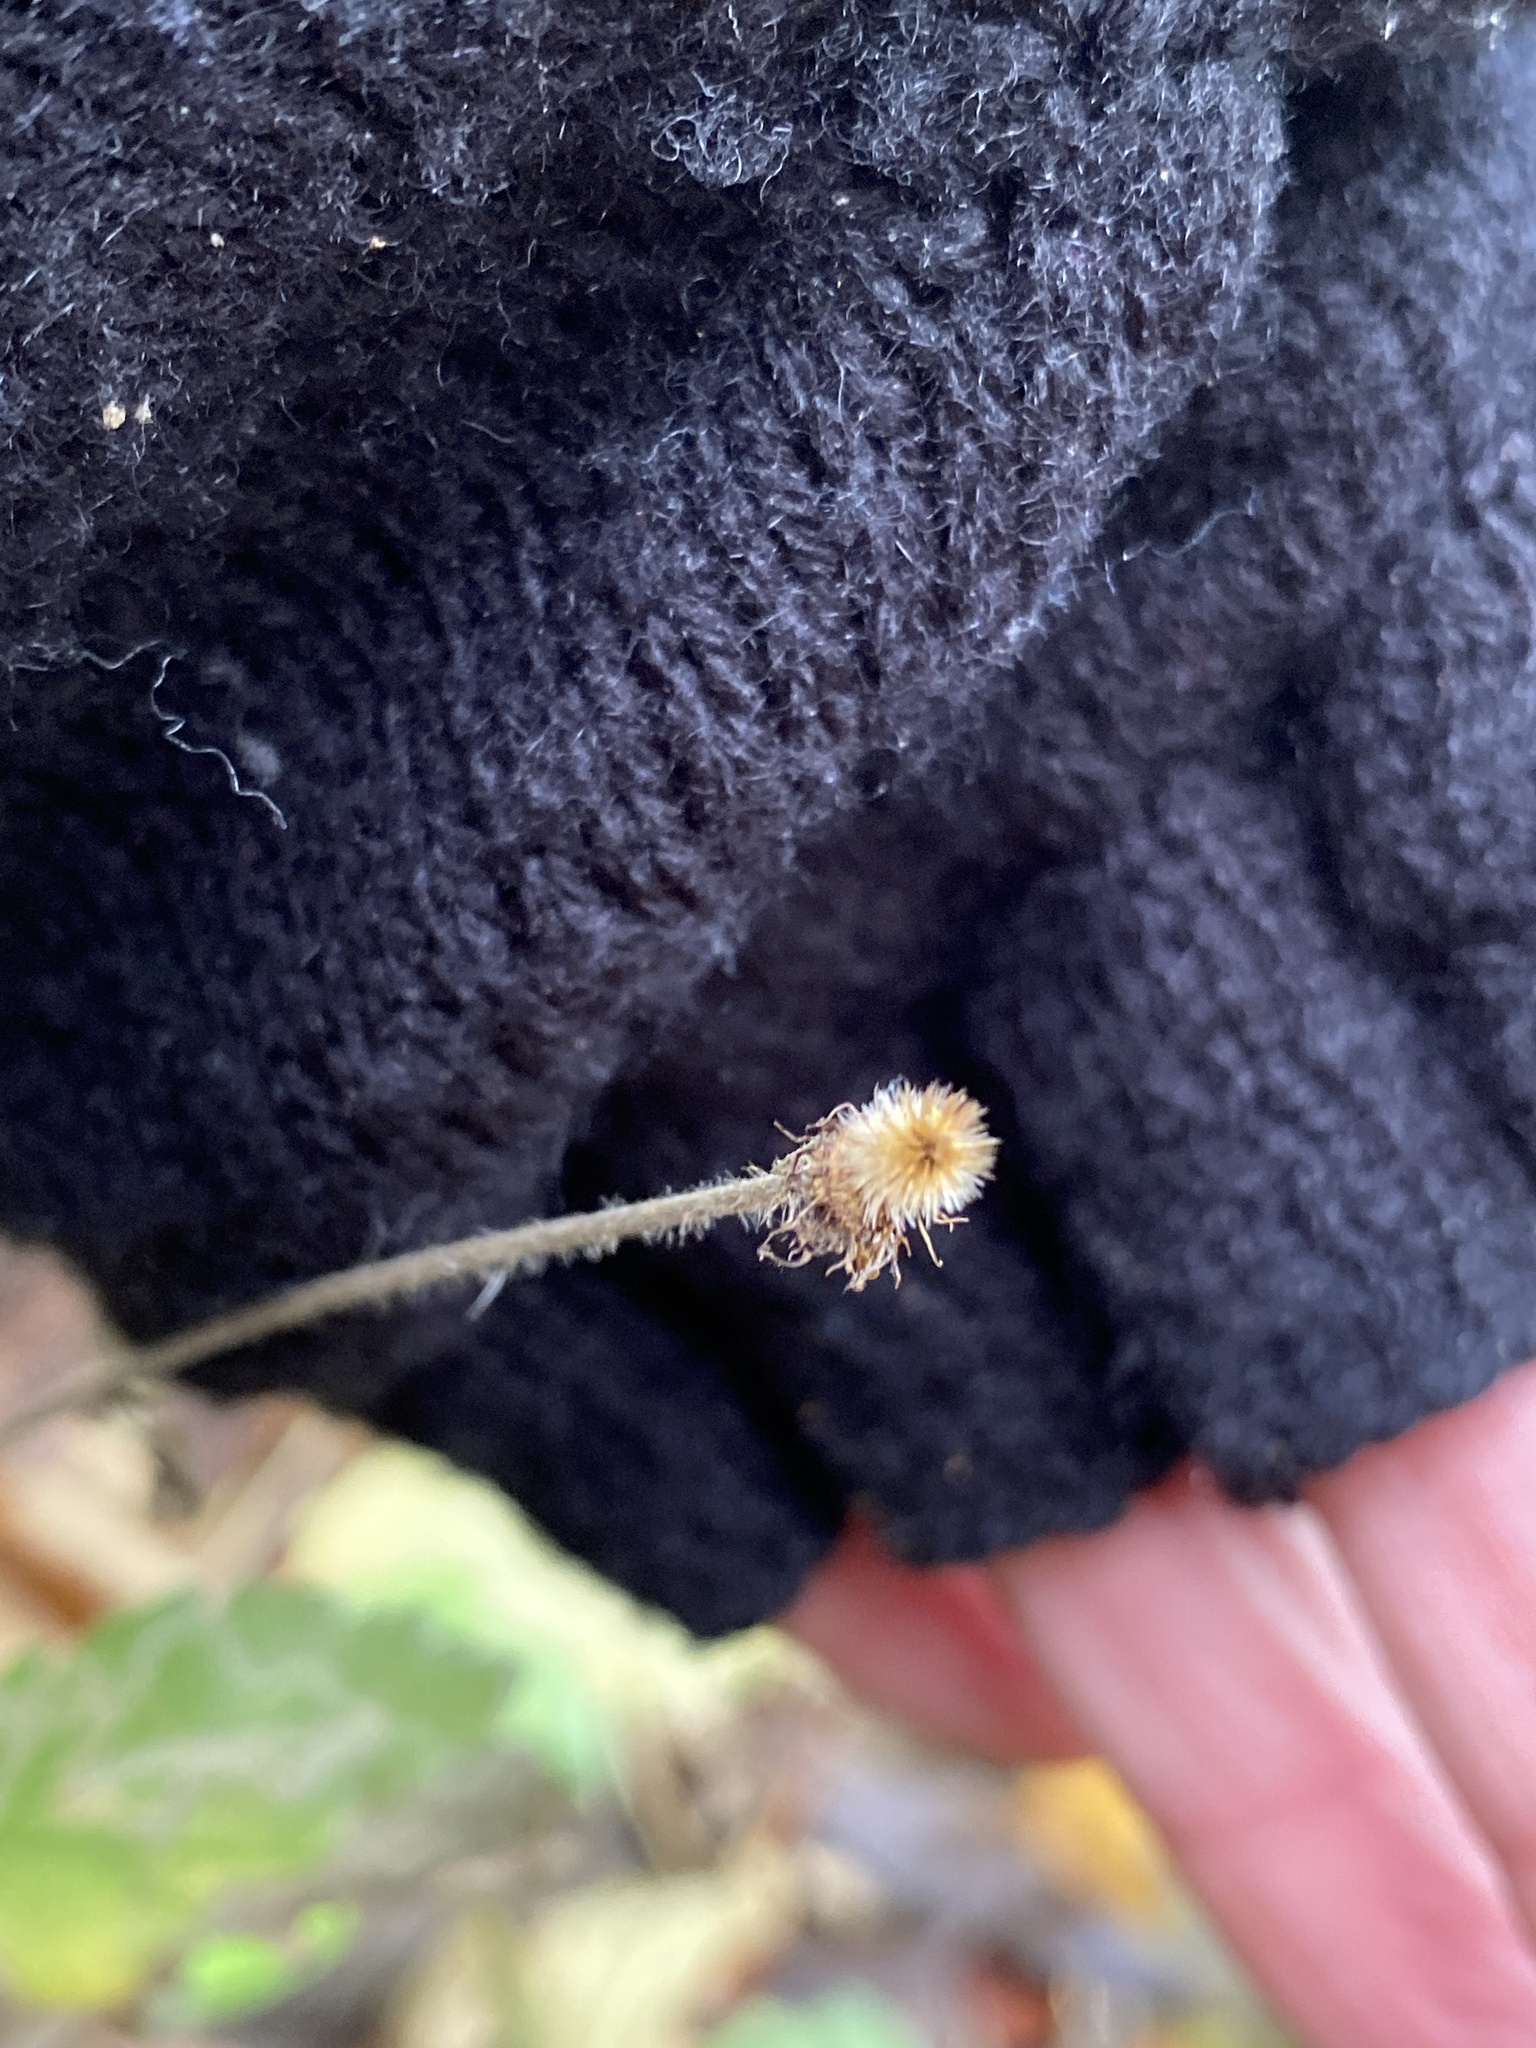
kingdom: Plantae
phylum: Tracheophyta
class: Magnoliopsida
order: Rosales
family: Rosaceae
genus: Geum
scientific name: Geum urbanum
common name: Wood avens
